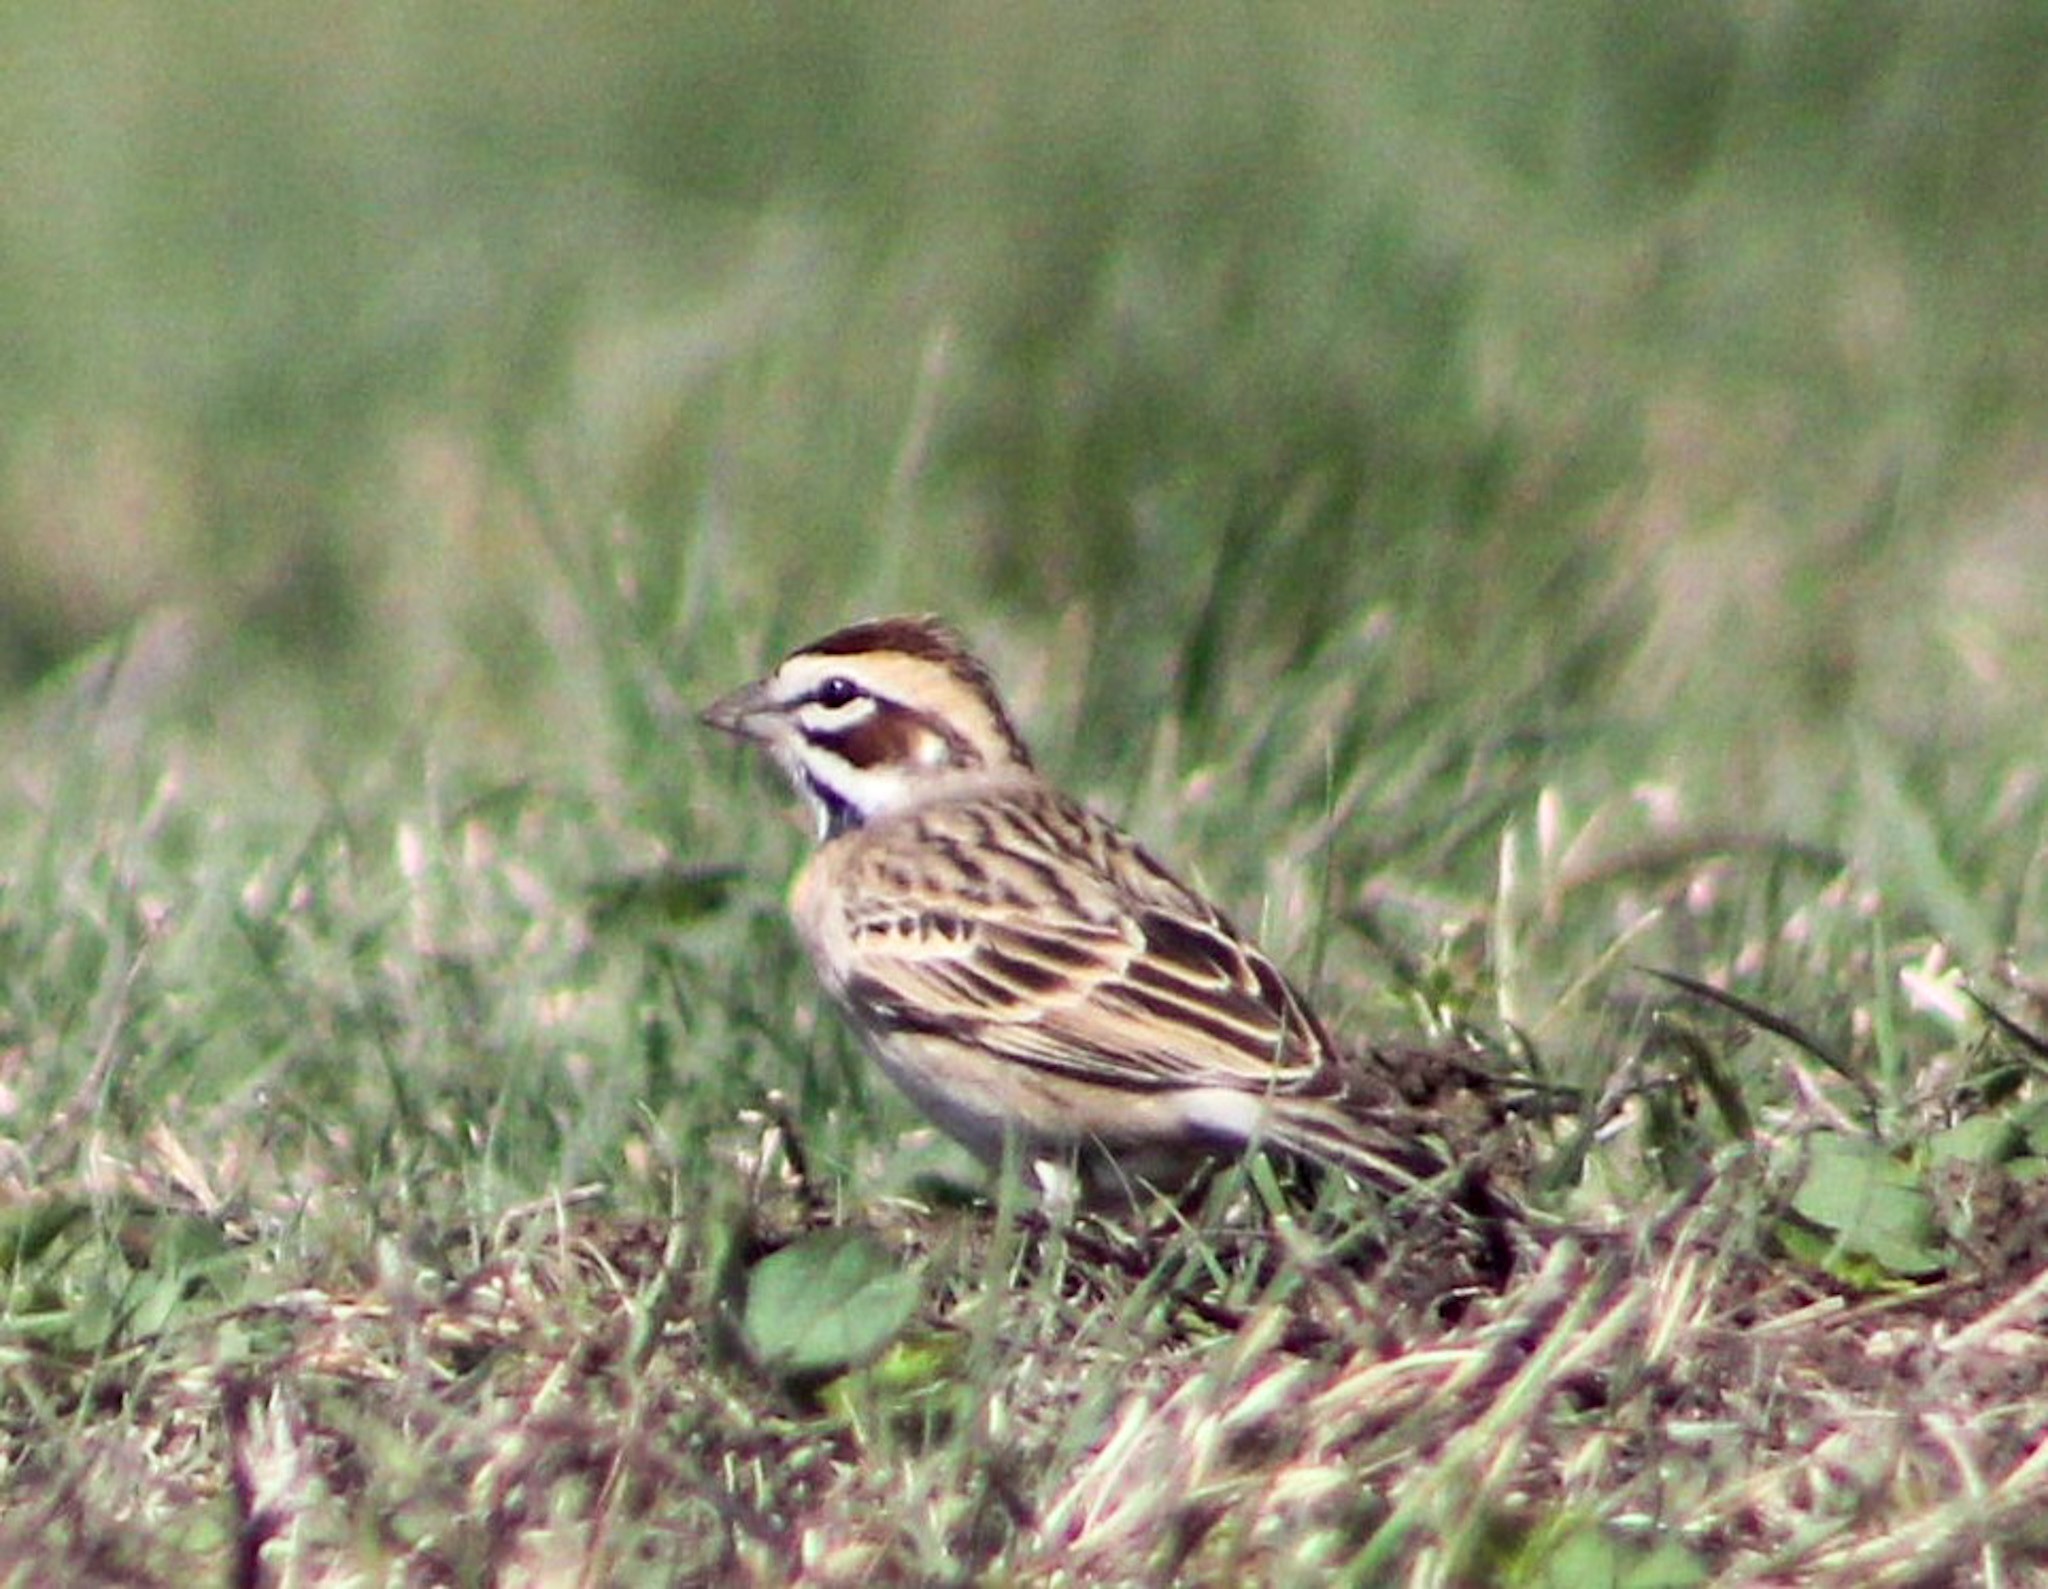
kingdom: Animalia
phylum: Chordata
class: Aves
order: Passeriformes
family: Passerellidae
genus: Chondestes
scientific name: Chondestes grammacus
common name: Lark sparrow
